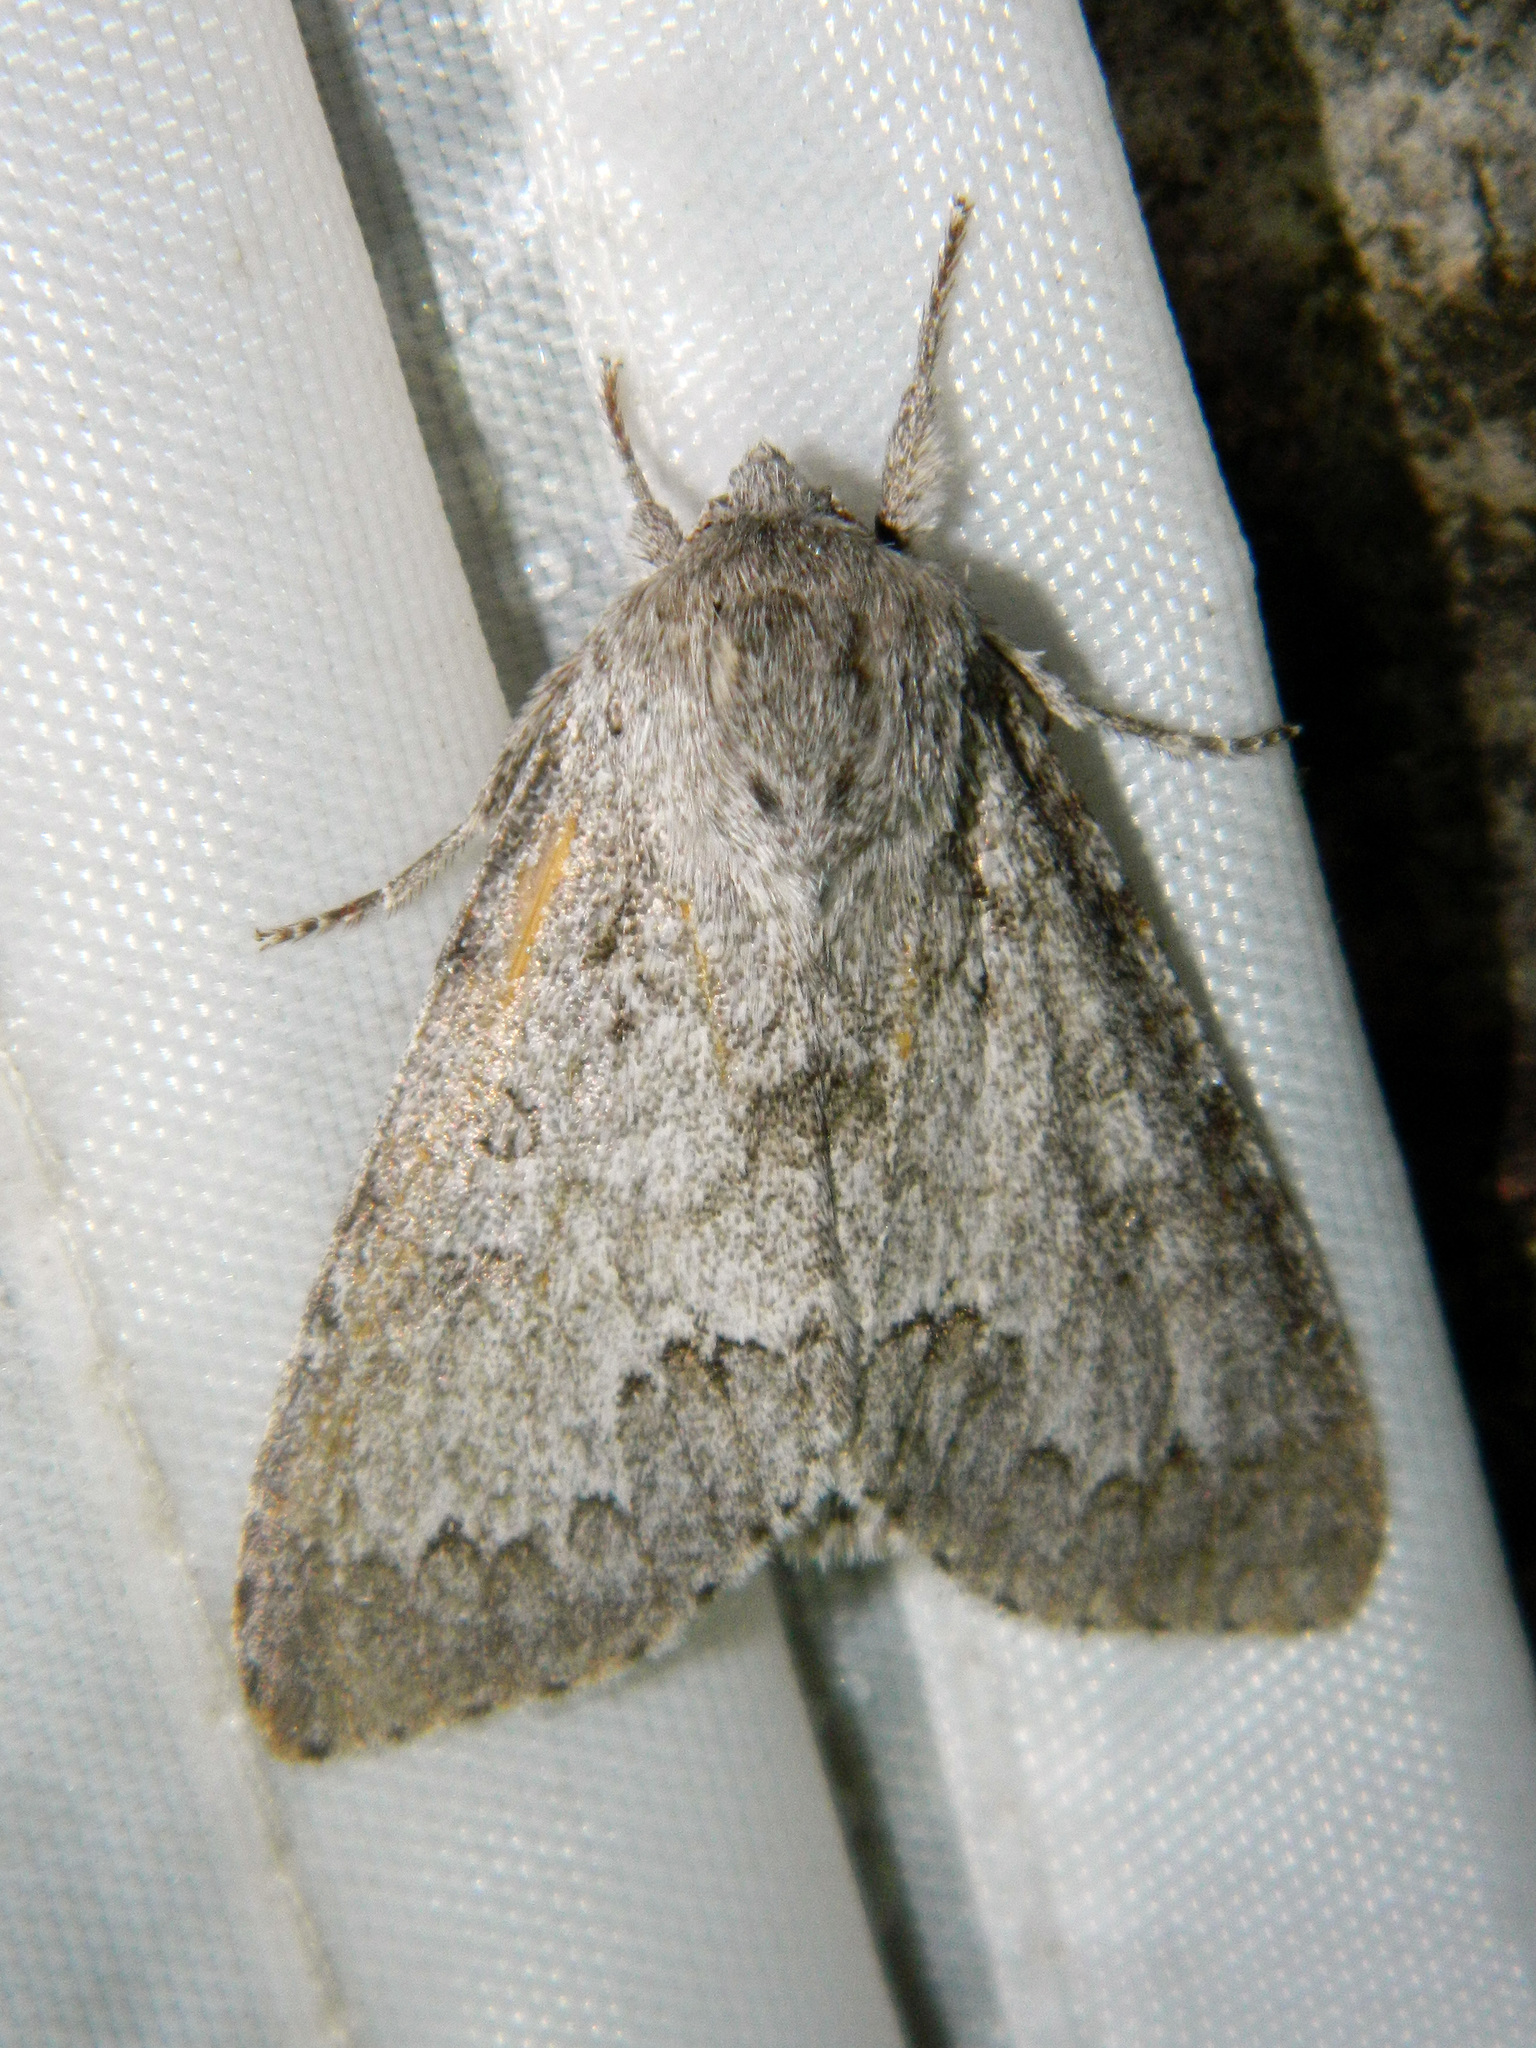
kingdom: Animalia
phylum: Arthropoda
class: Insecta
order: Lepidoptera
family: Noctuidae
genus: Acronicta
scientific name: Acronicta insita
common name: Large gray dagger
